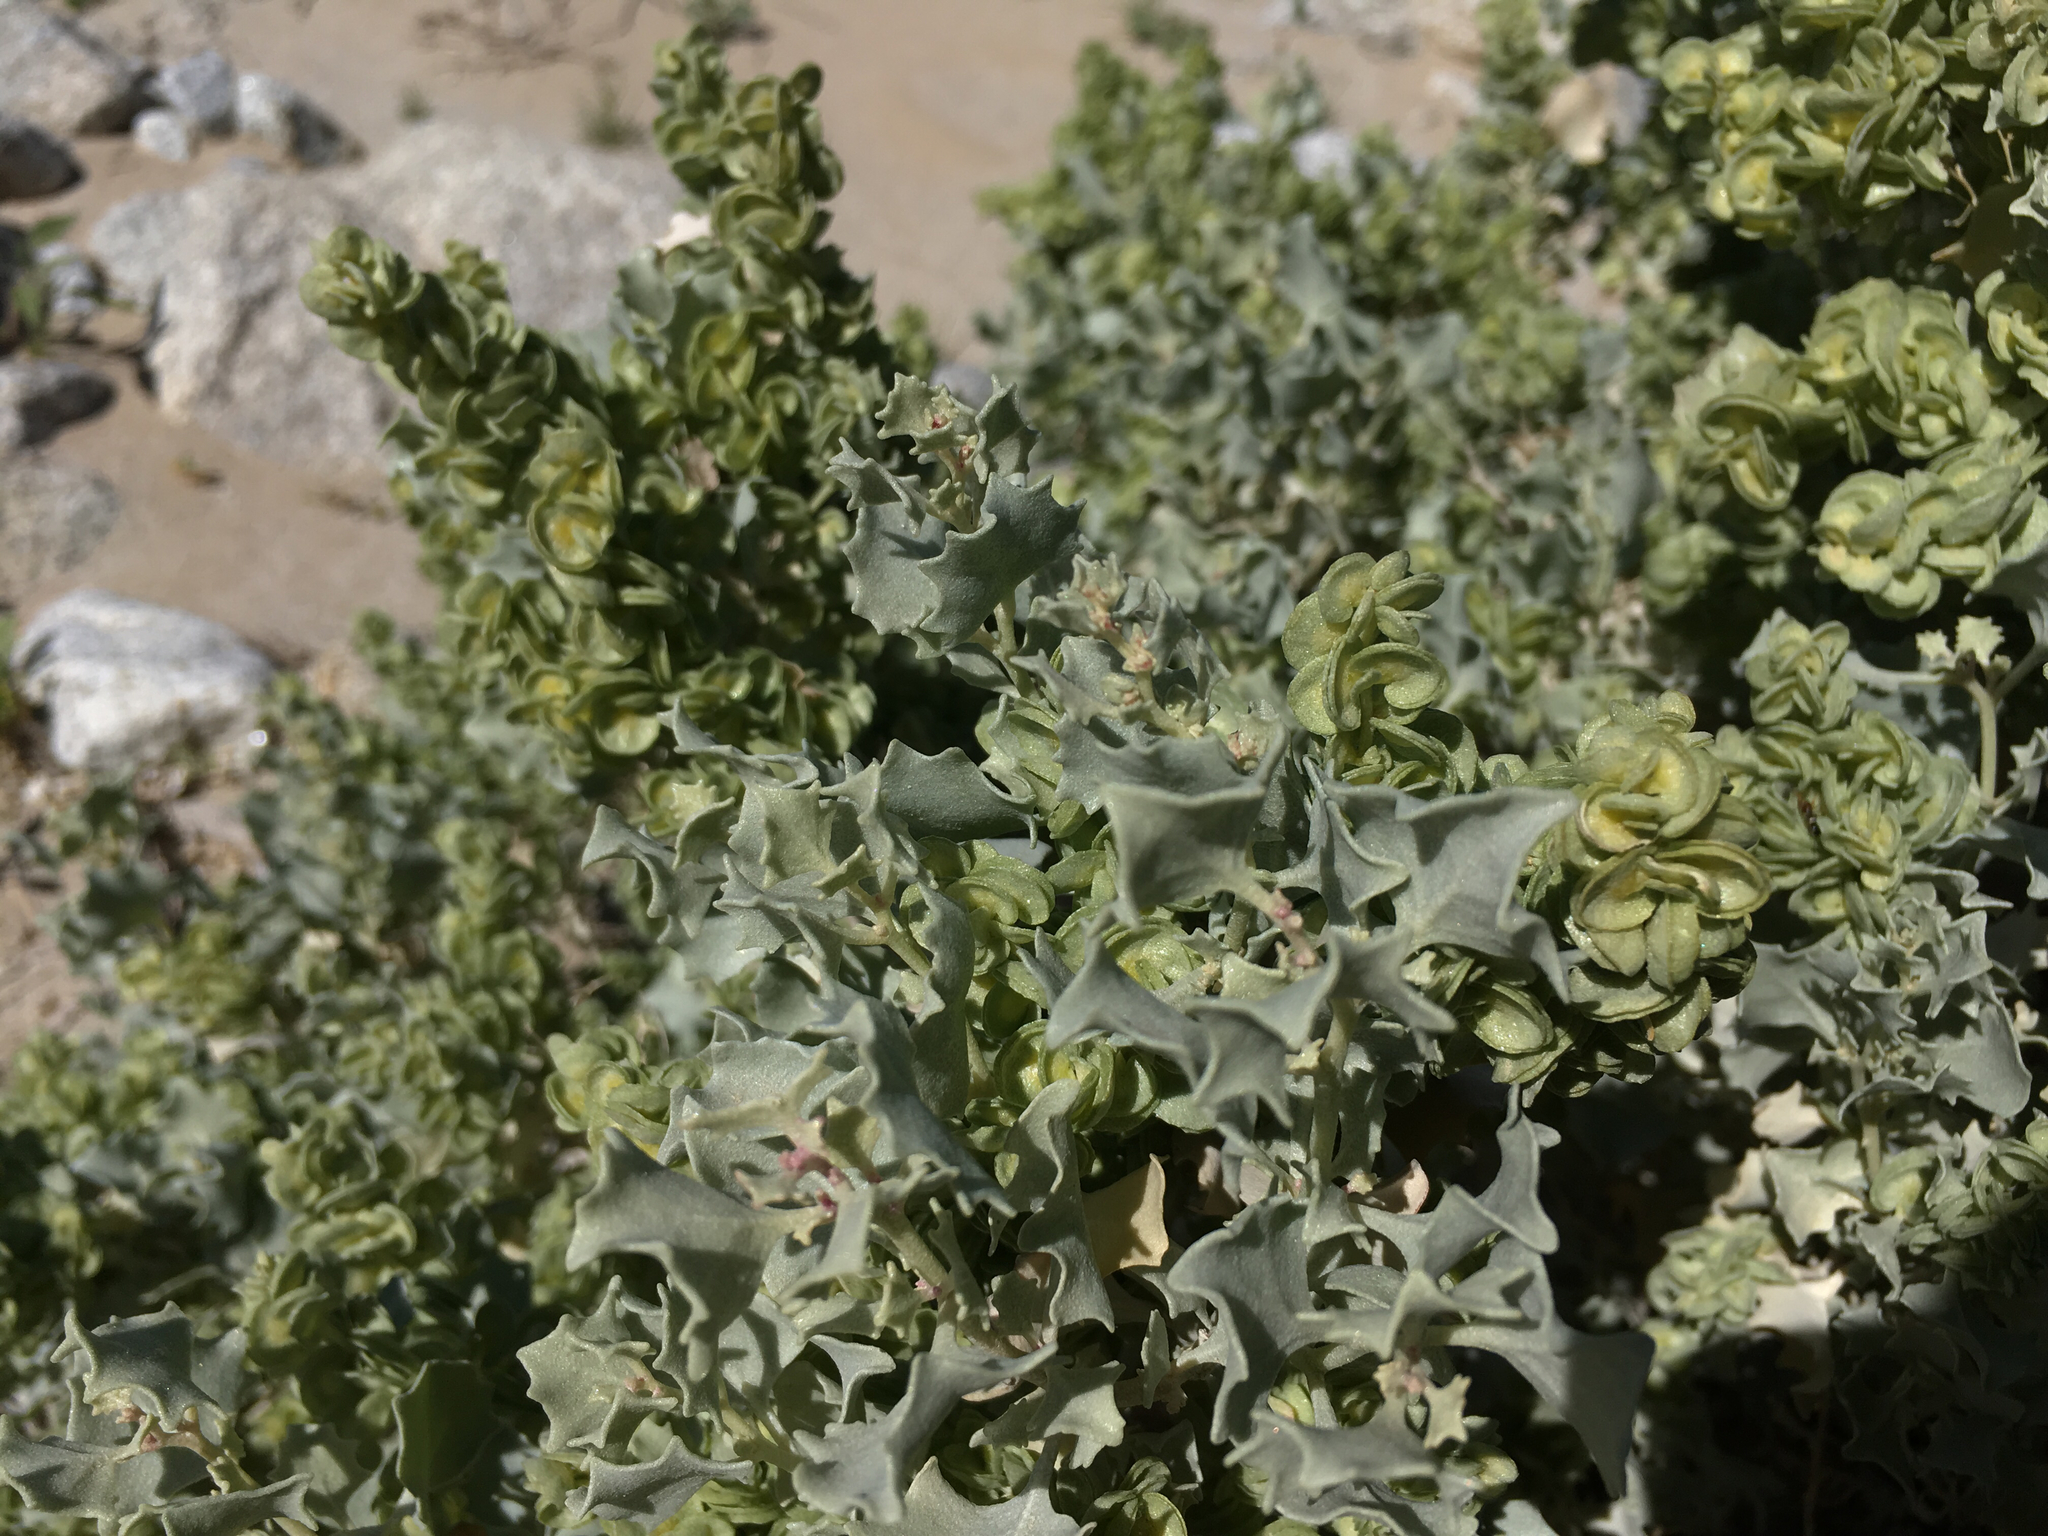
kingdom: Plantae
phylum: Tracheophyta
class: Magnoliopsida
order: Caryophyllales
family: Amaranthaceae
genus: Atriplex
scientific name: Atriplex hymenelytra
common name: Desert-holly
